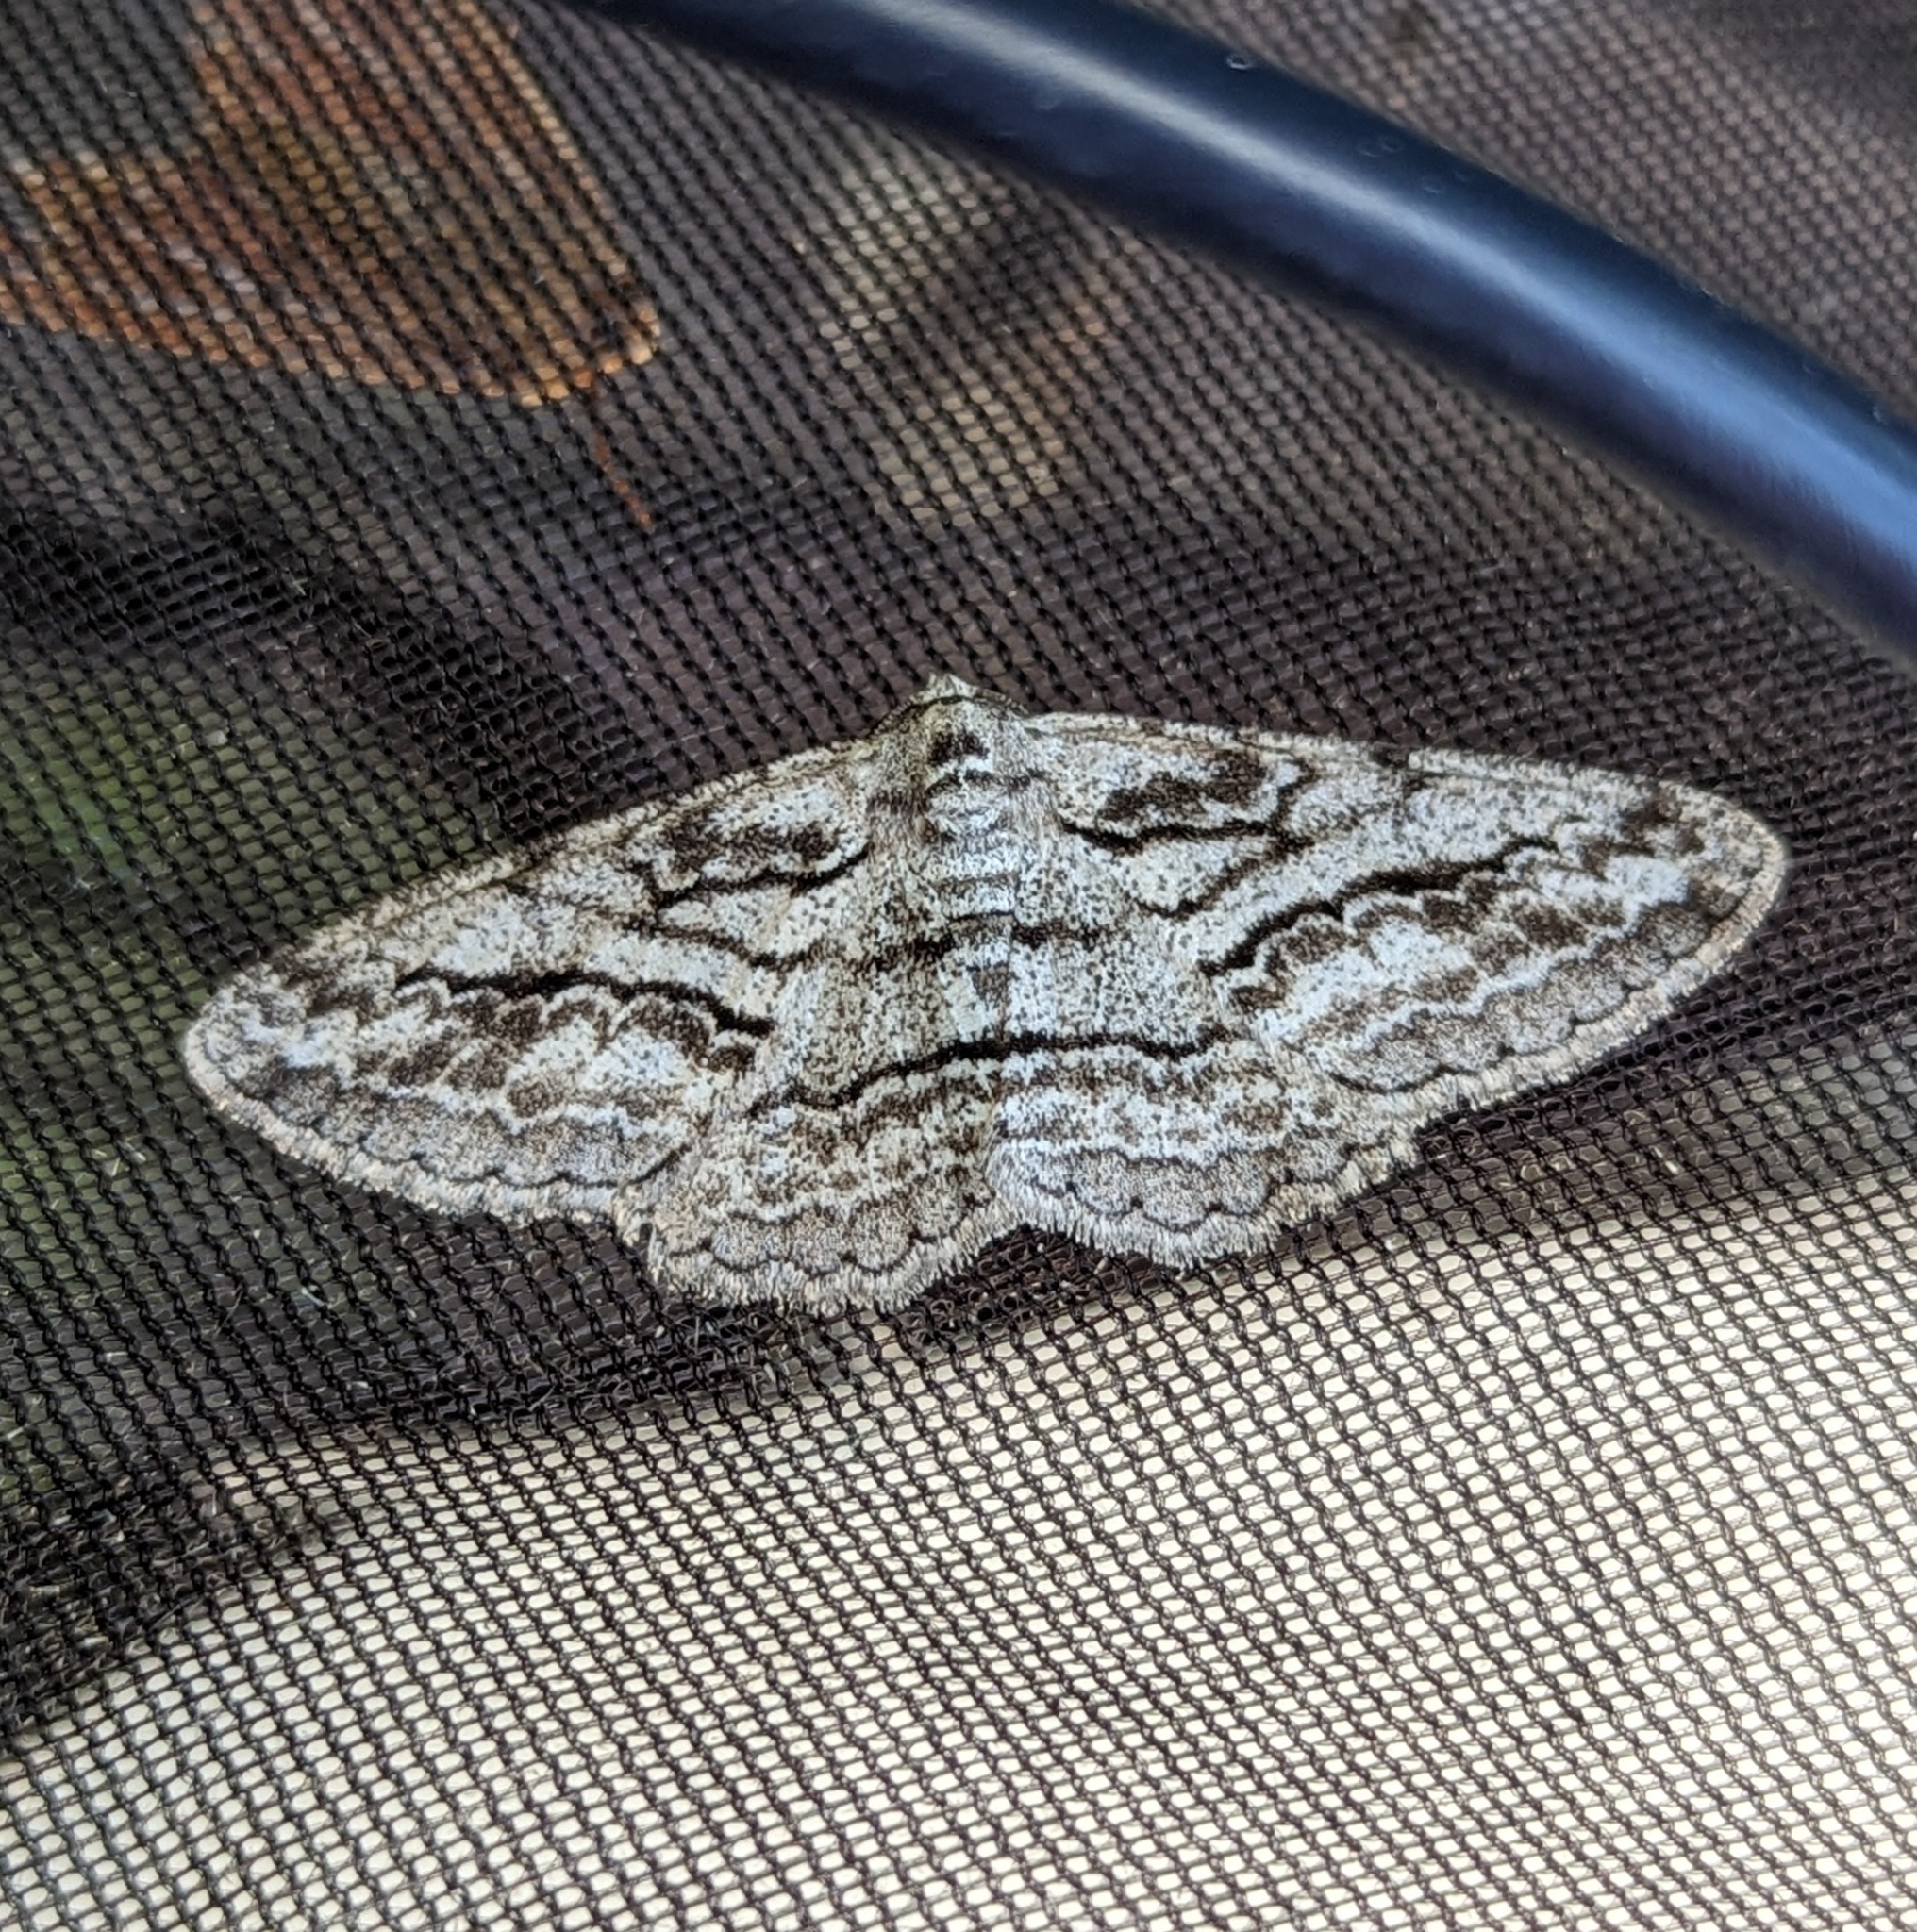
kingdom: Animalia
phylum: Arthropoda
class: Insecta
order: Lepidoptera
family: Geometridae
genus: Stenoporpia
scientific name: Stenoporpia excelsaria
